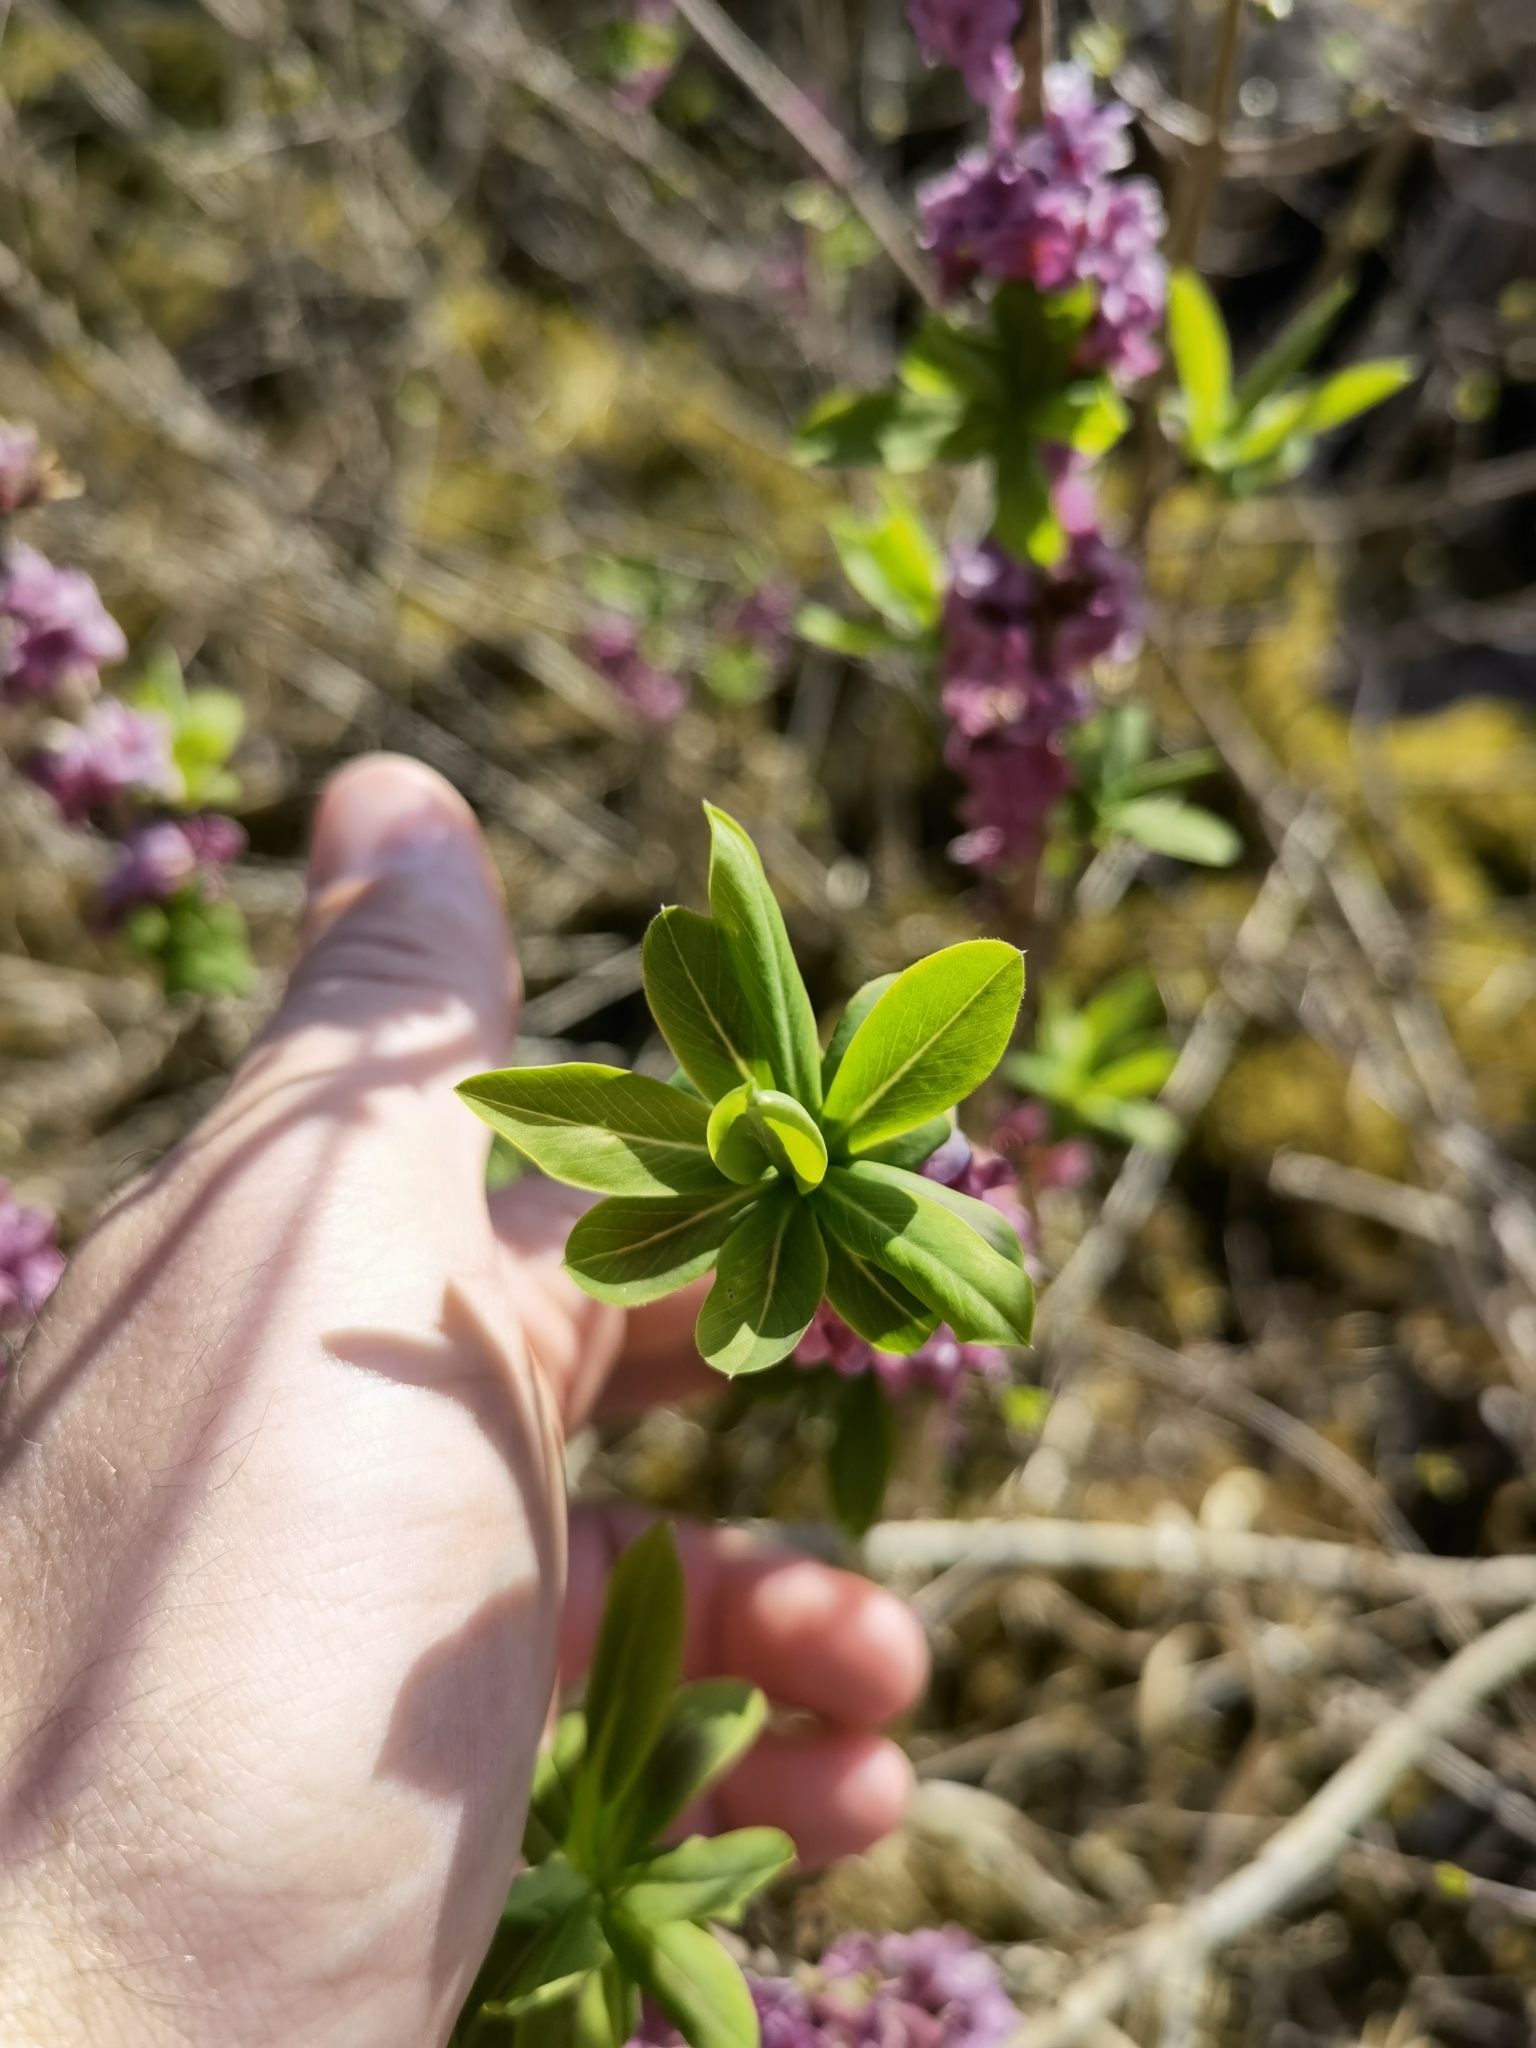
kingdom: Plantae
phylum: Tracheophyta
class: Magnoliopsida
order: Malvales
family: Thymelaeaceae
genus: Daphne
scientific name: Daphne mezereum
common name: Mezereon
